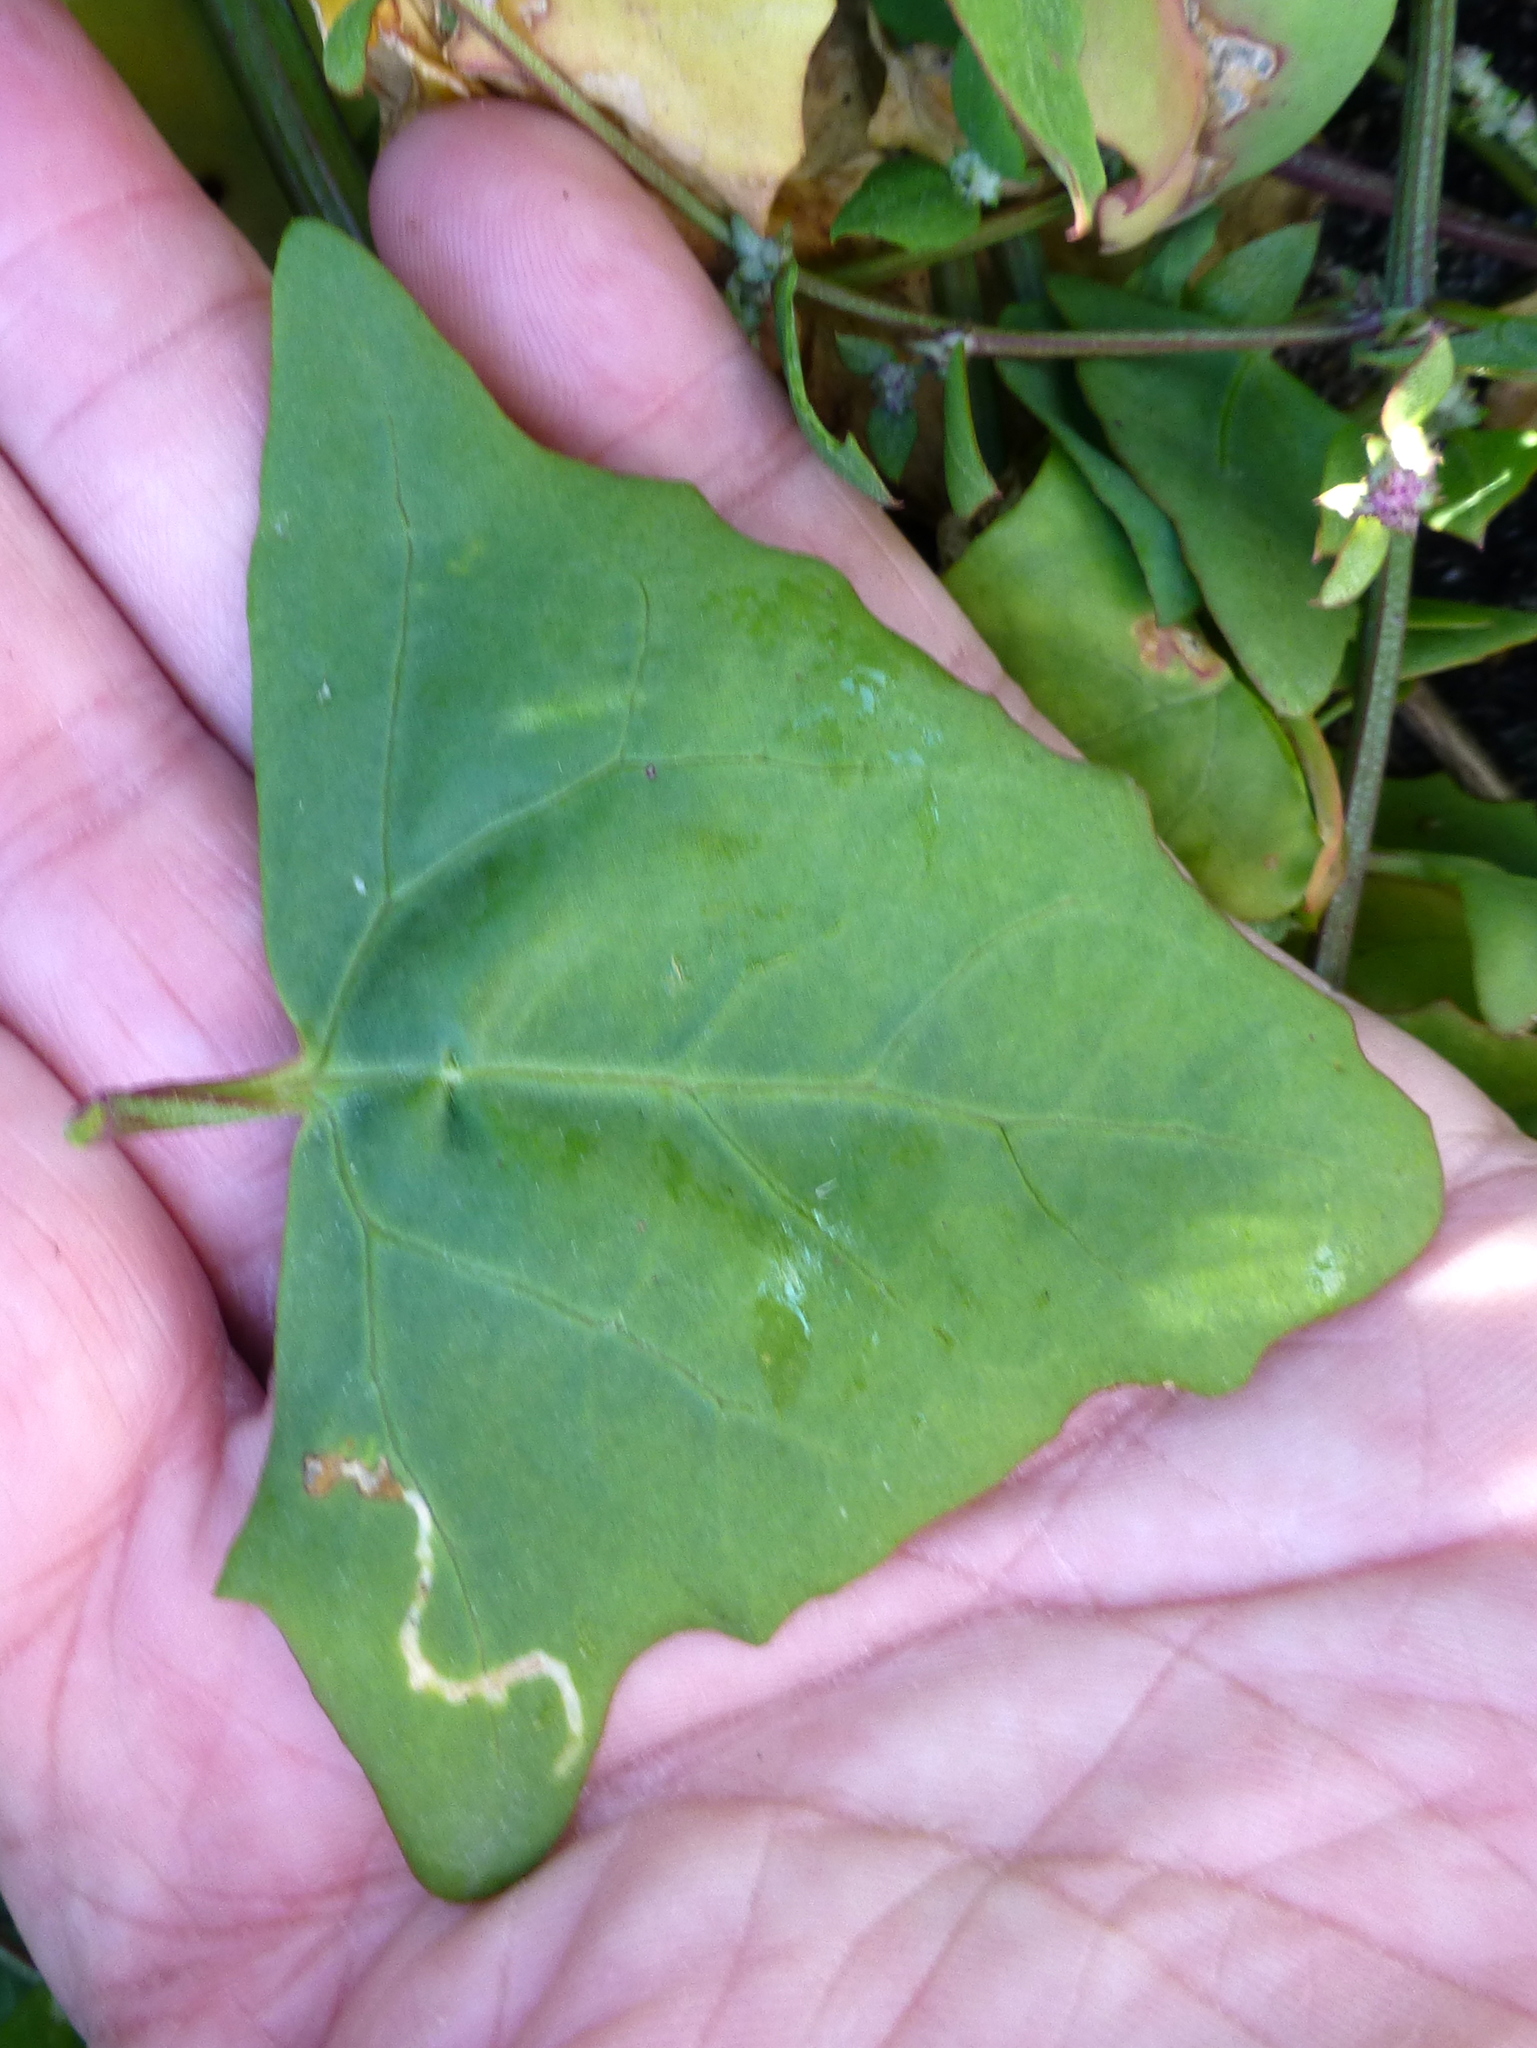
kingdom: Plantae
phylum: Tracheophyta
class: Magnoliopsida
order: Caryophyllales
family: Amaranthaceae
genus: Atriplex
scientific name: Atriplex prostrata
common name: Spear-leaved orache
